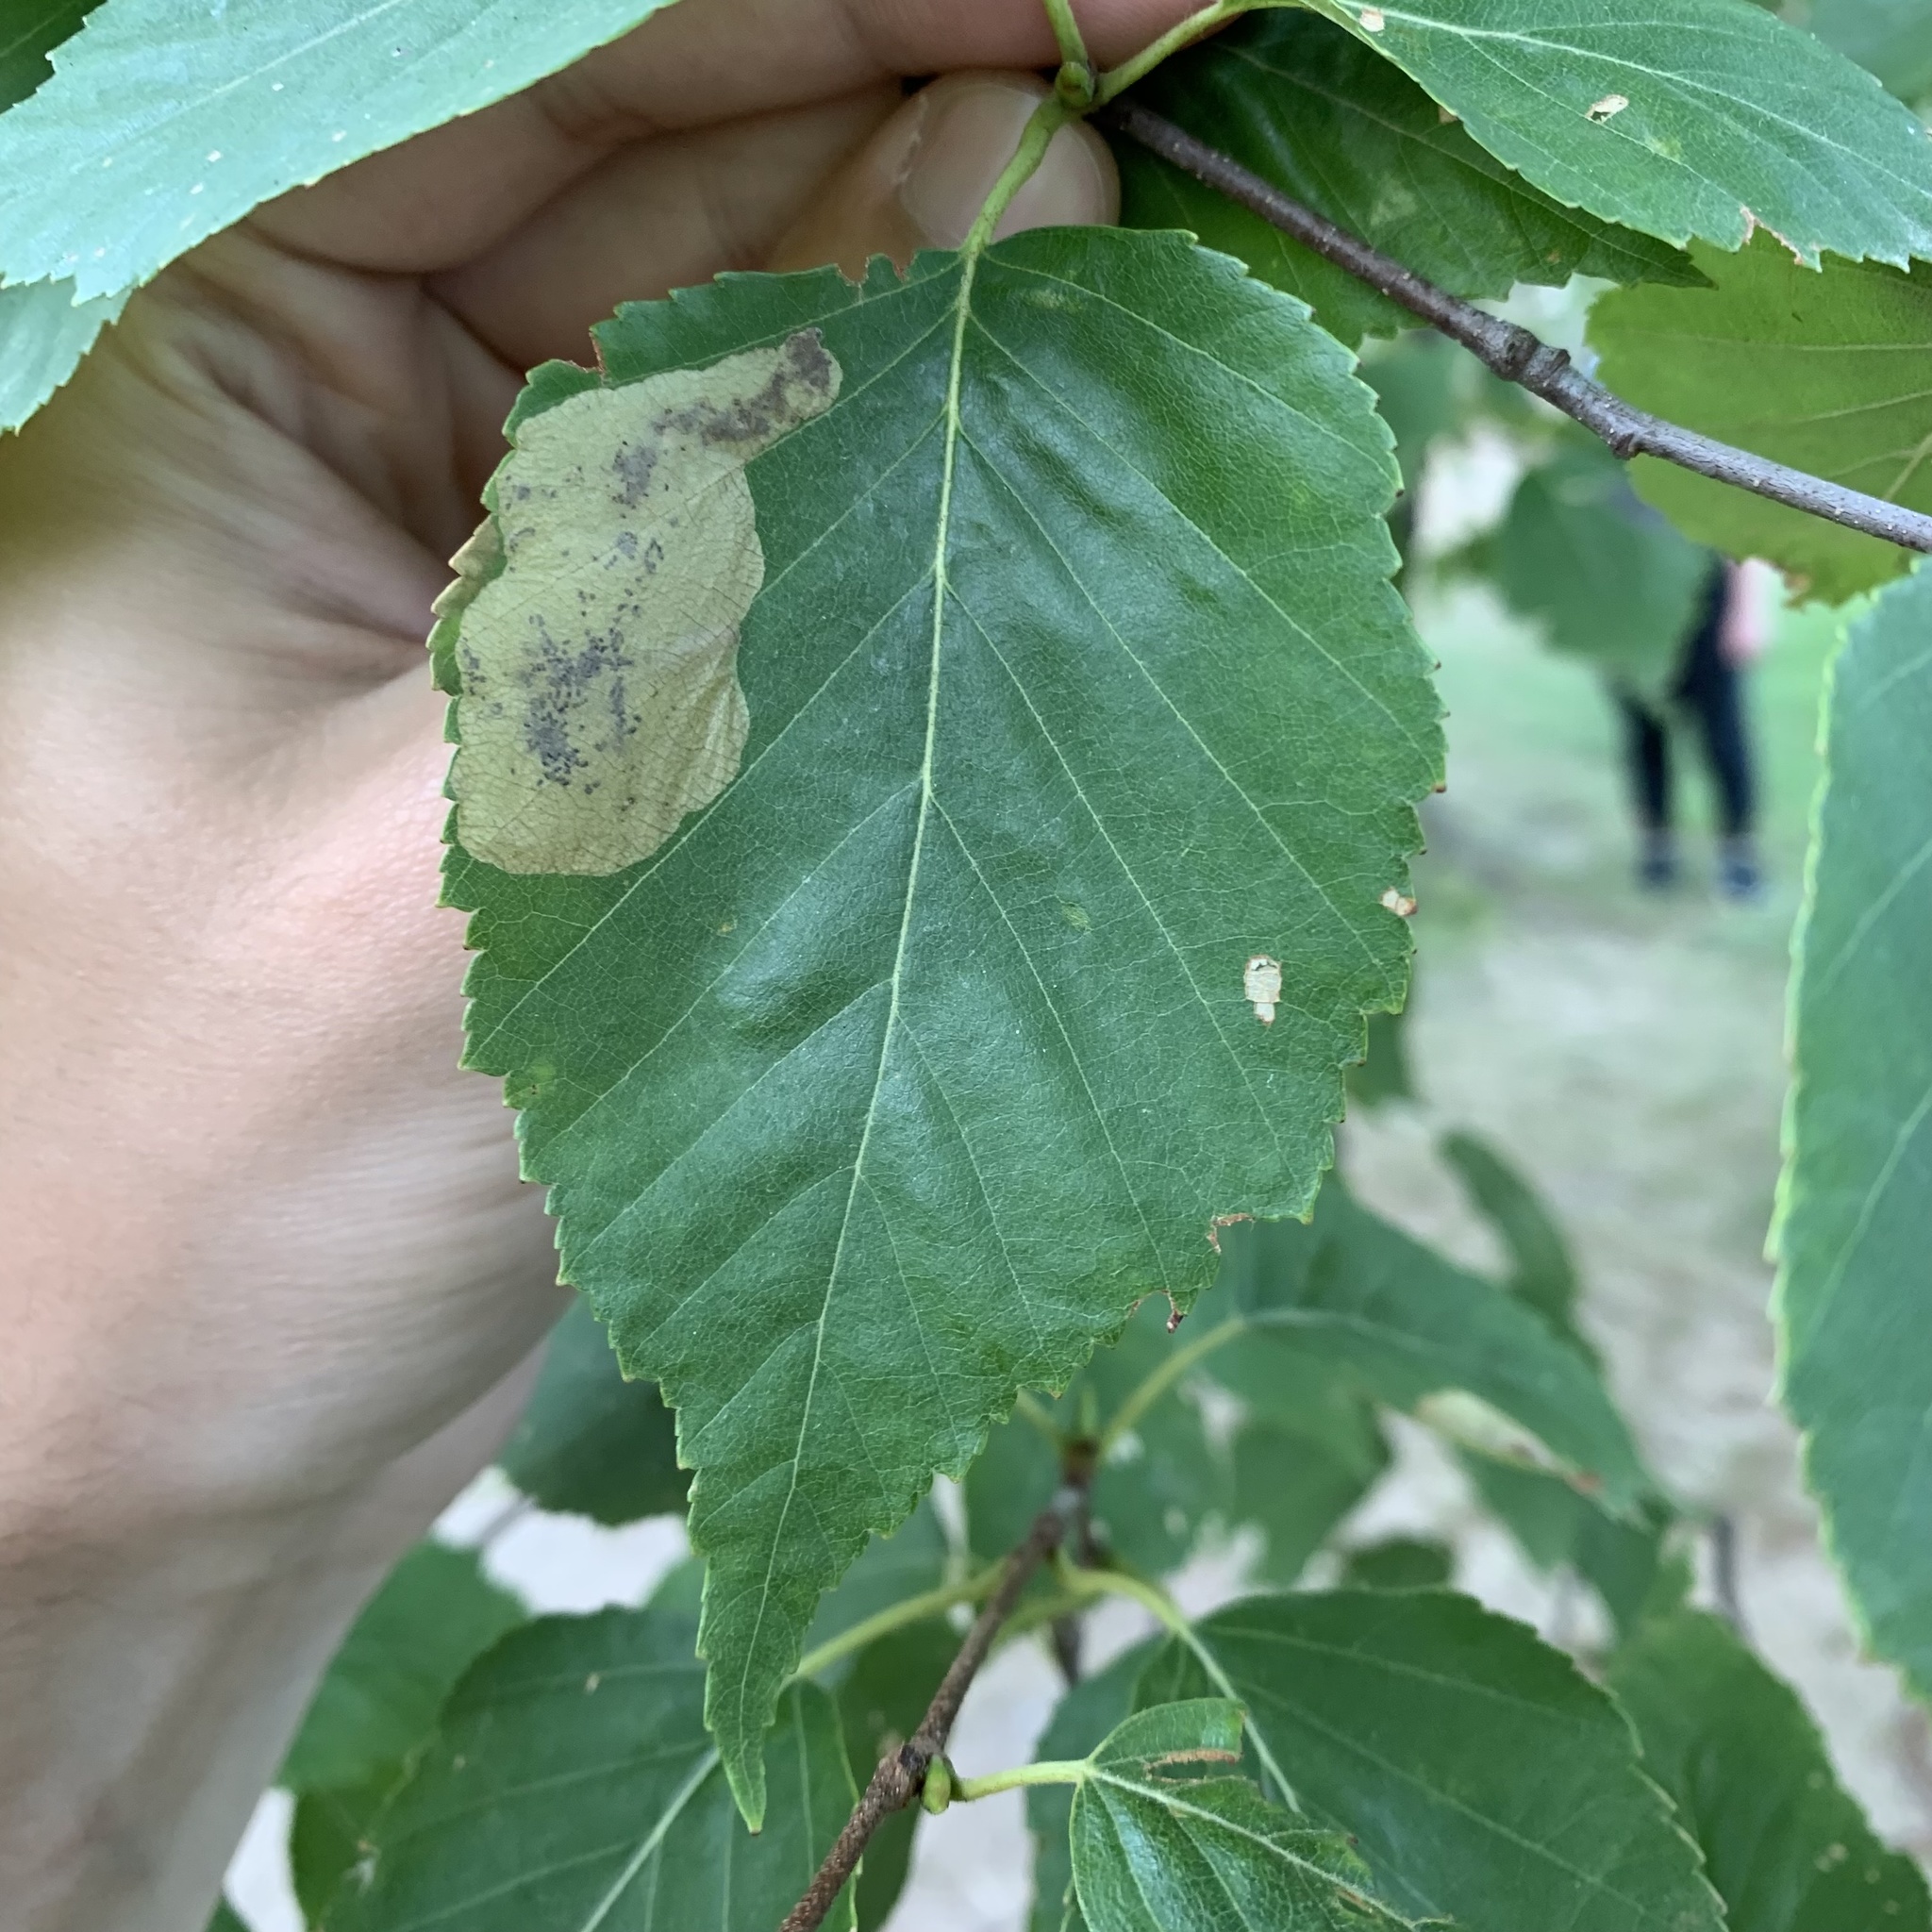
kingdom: Animalia
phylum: Arthropoda
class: Insecta
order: Hymenoptera
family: Tenthredinidae
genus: Profenusa
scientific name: Profenusa thomsoni
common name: Amber-marked birch leafminer
